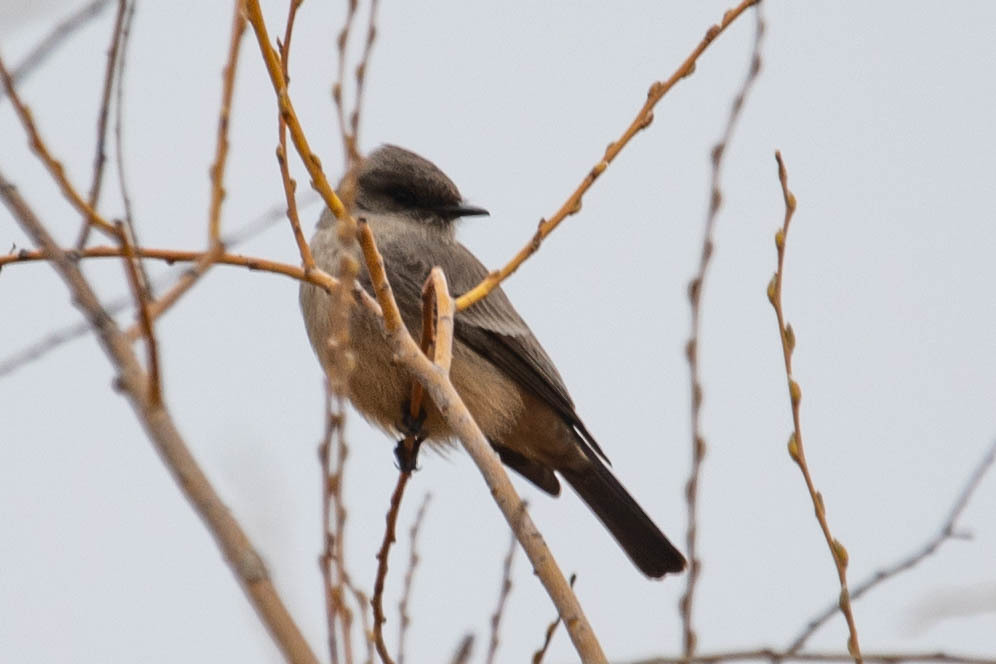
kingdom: Animalia
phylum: Chordata
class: Aves
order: Passeriformes
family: Tyrannidae
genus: Sayornis
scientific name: Sayornis saya
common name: Say's phoebe
